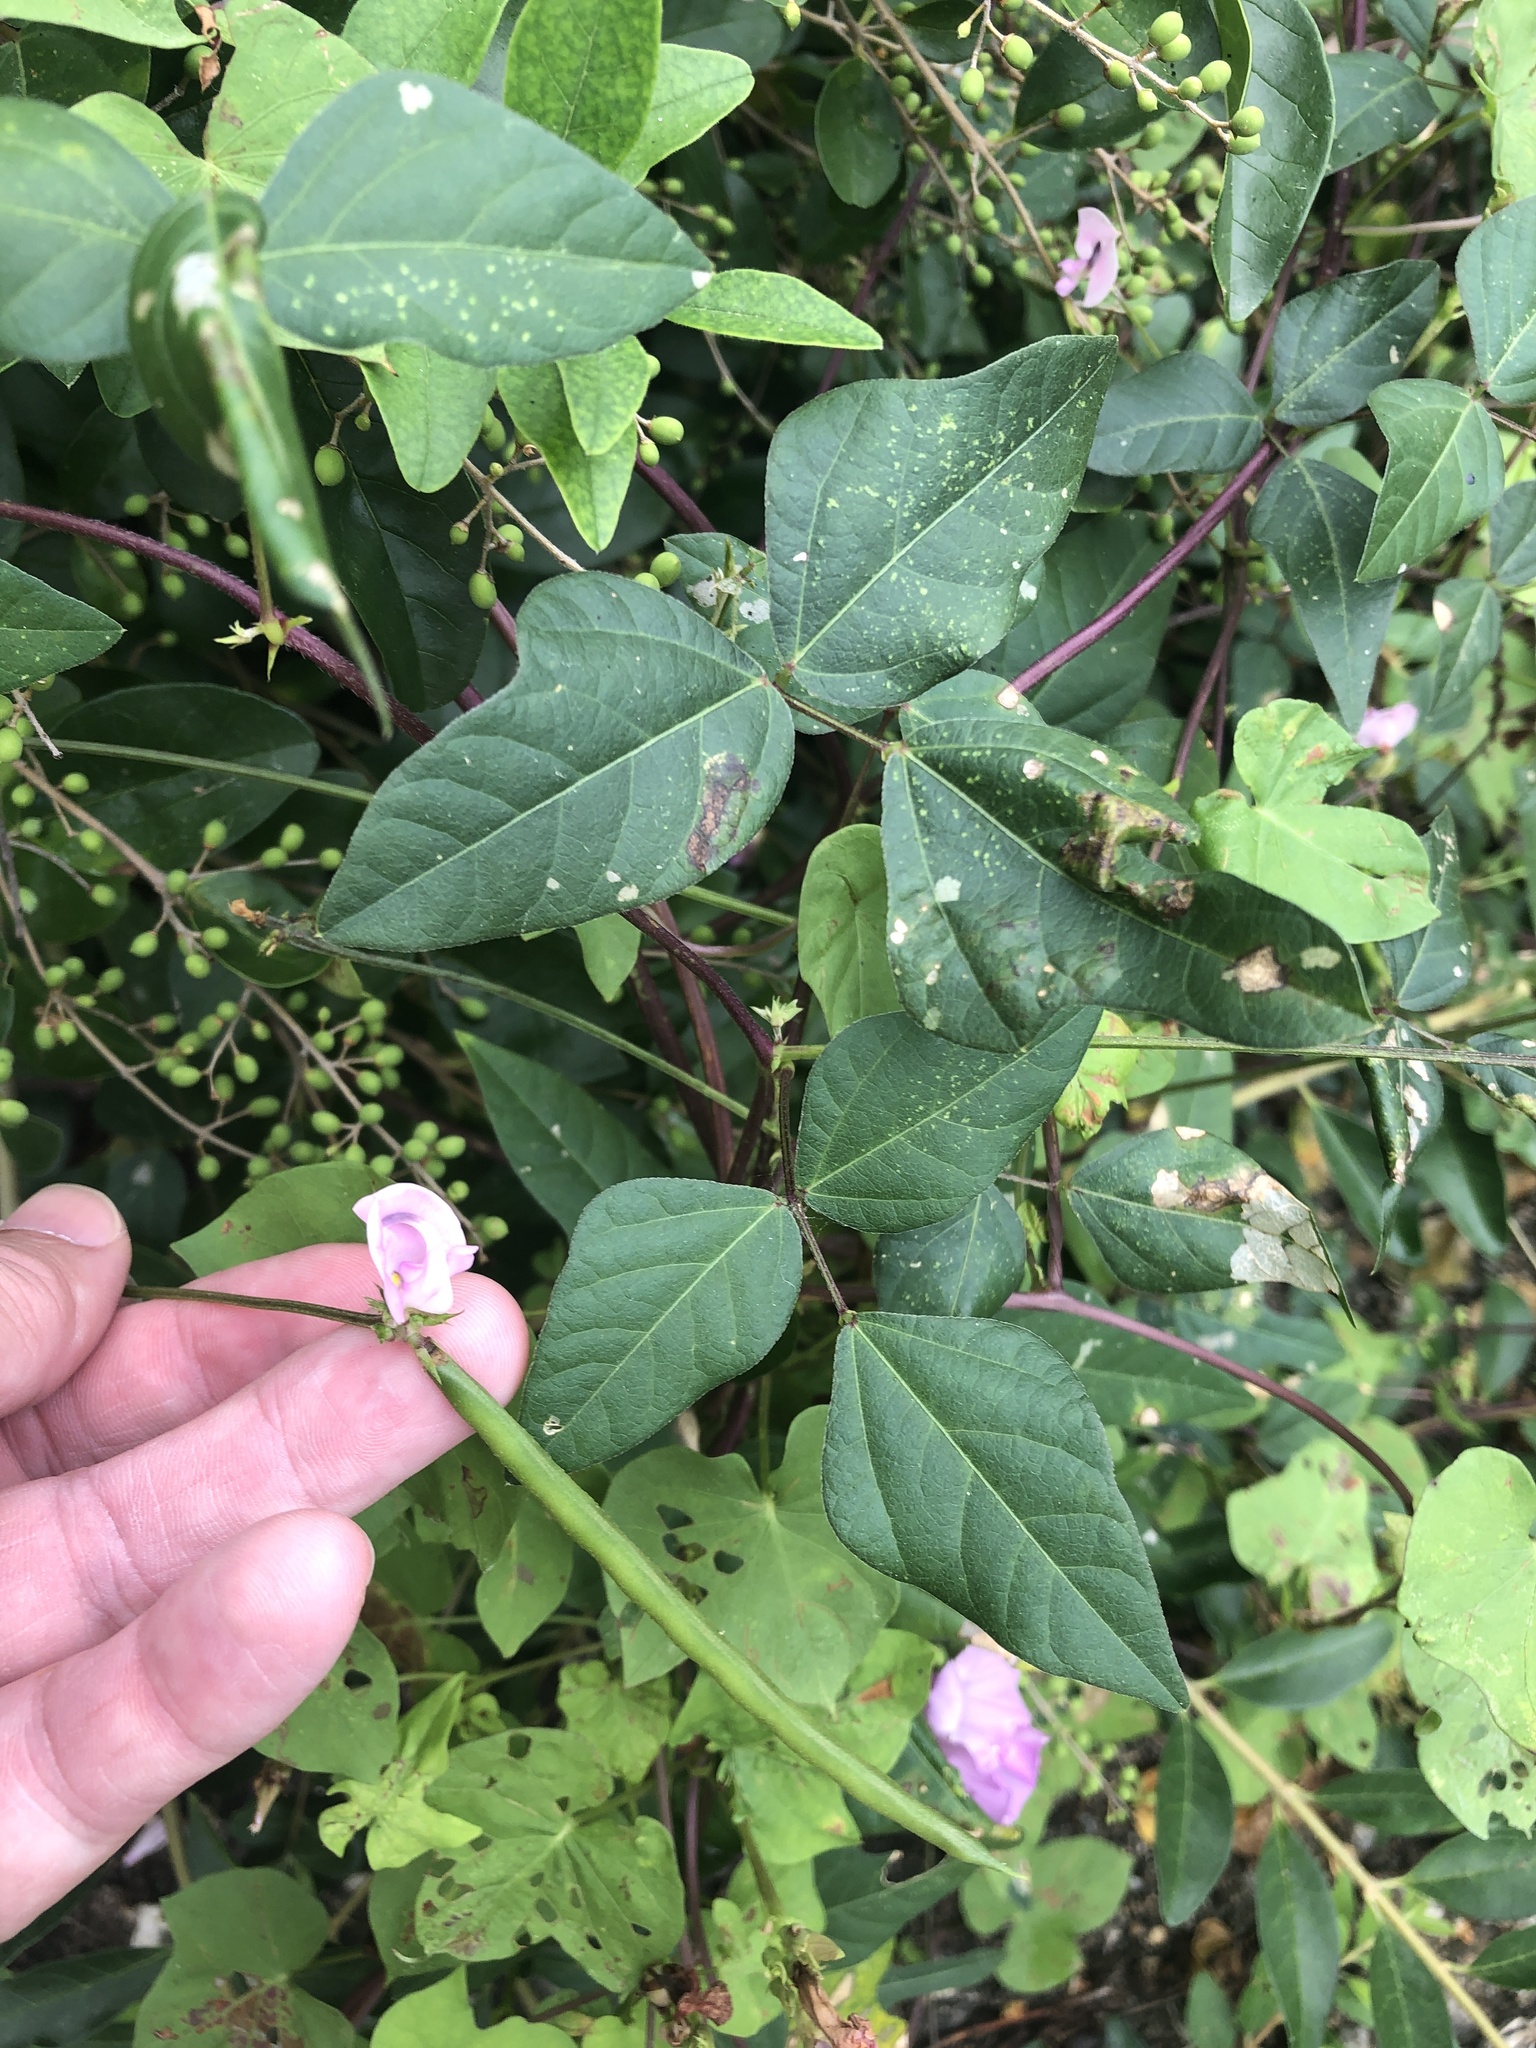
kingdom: Plantae
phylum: Tracheophyta
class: Magnoliopsida
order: Fabales
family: Fabaceae
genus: Strophostyles
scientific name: Strophostyles helvola
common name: Trailing wild bean
